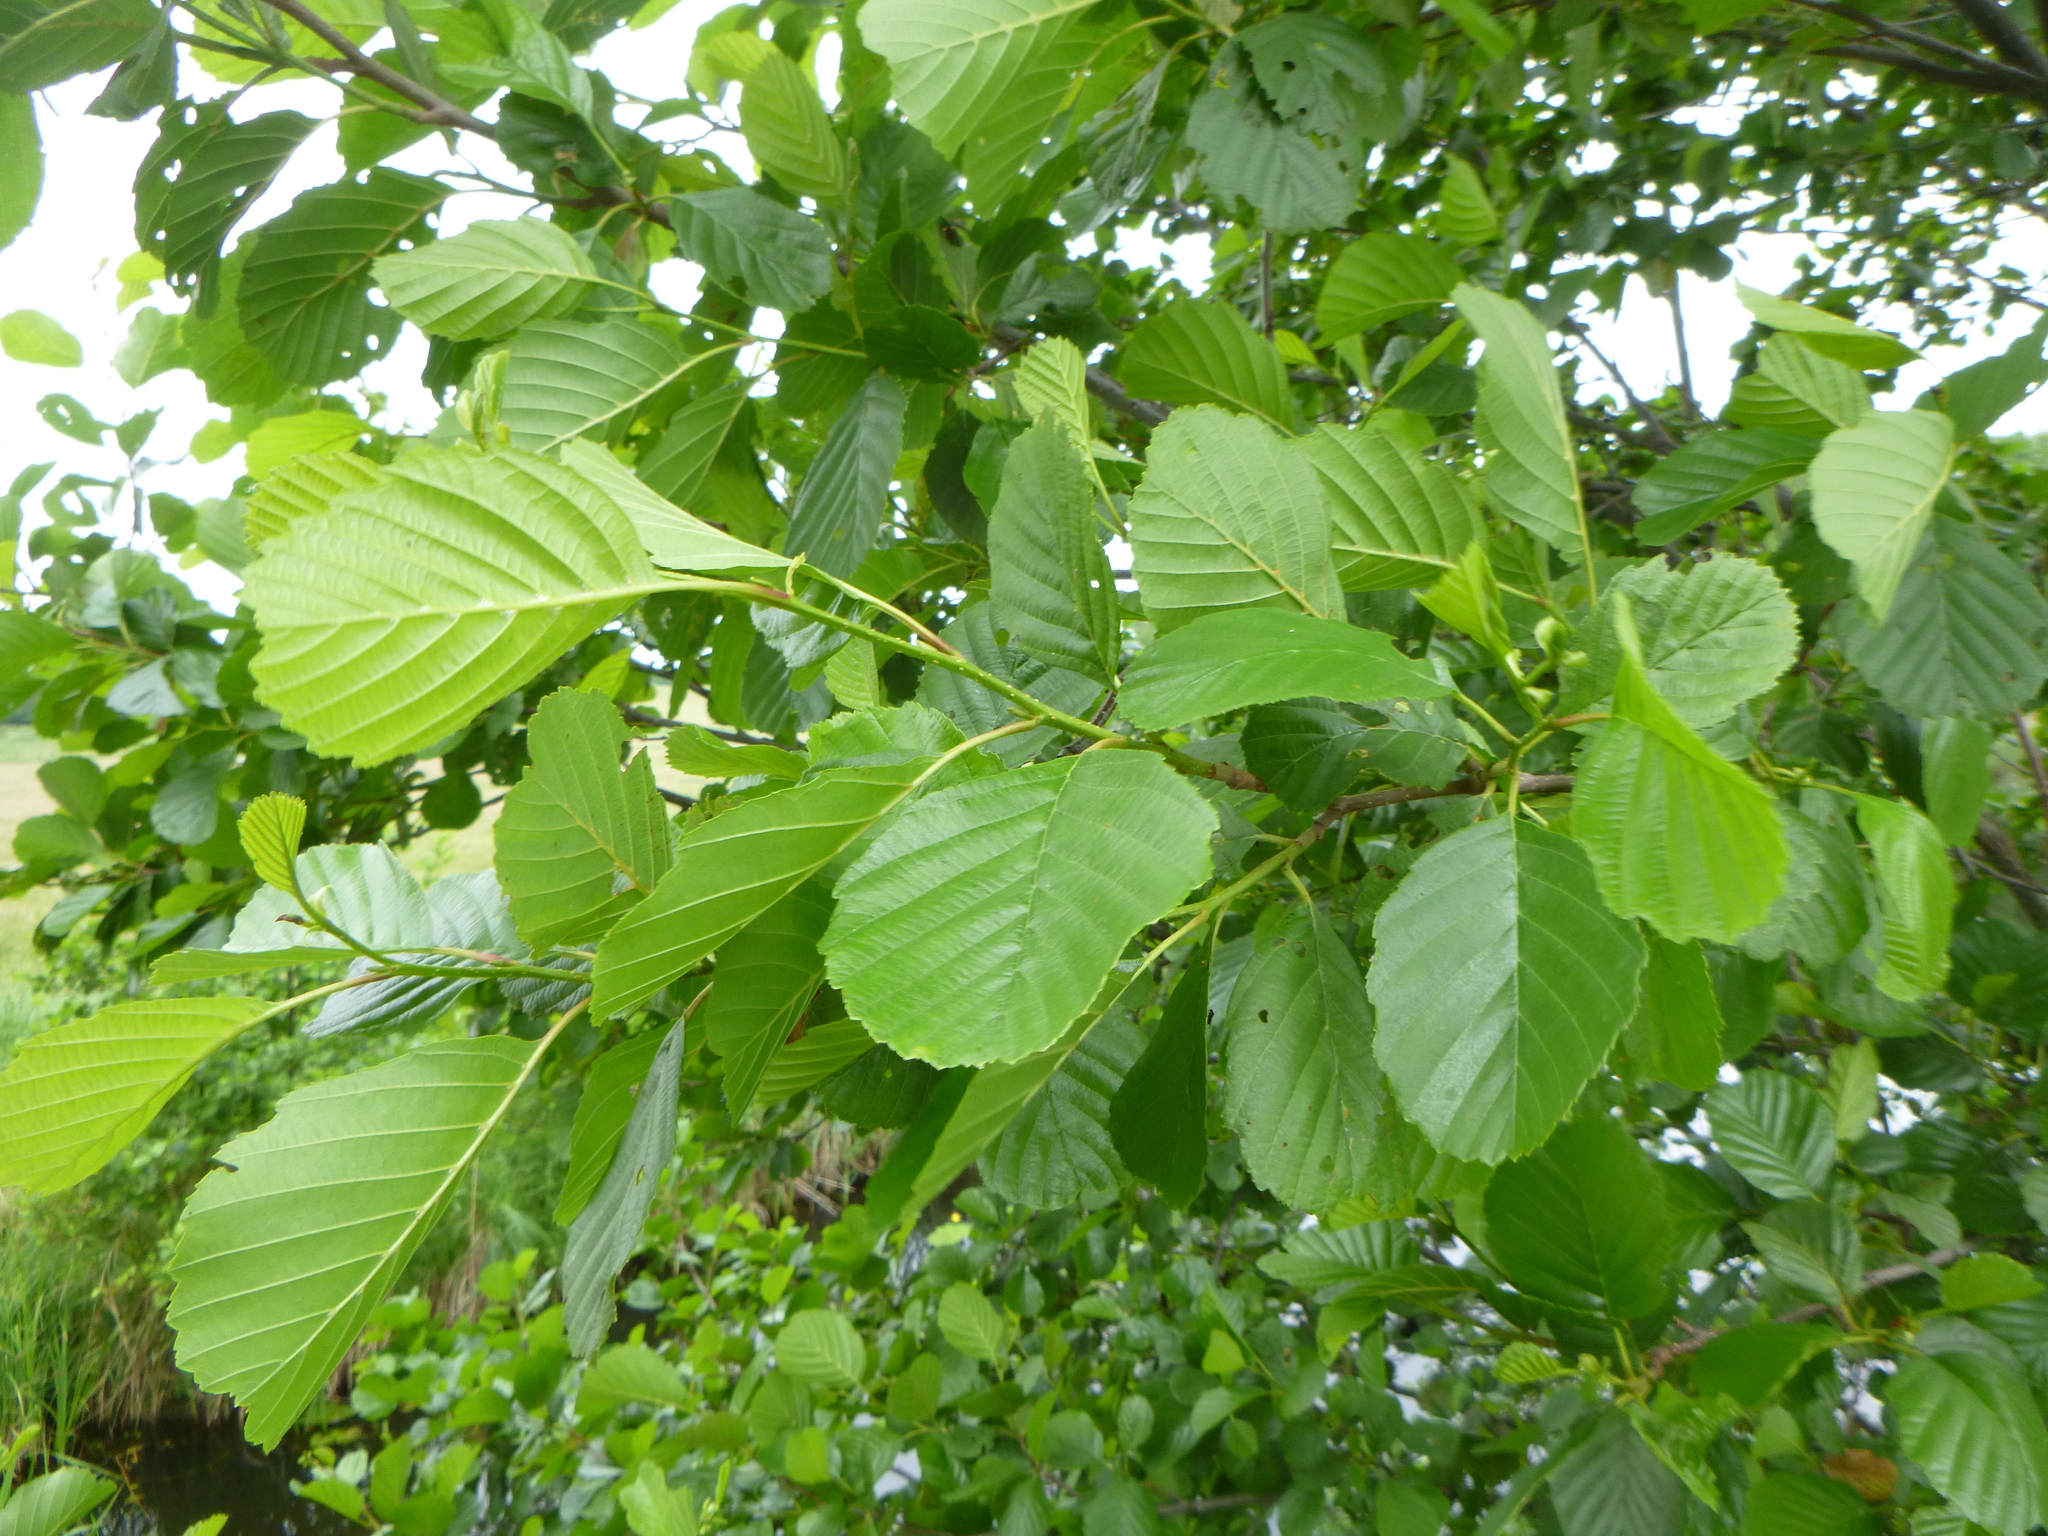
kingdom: Plantae
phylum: Tracheophyta
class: Magnoliopsida
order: Fagales
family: Betulaceae
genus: Alnus
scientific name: Alnus glutinosa
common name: Black alder
